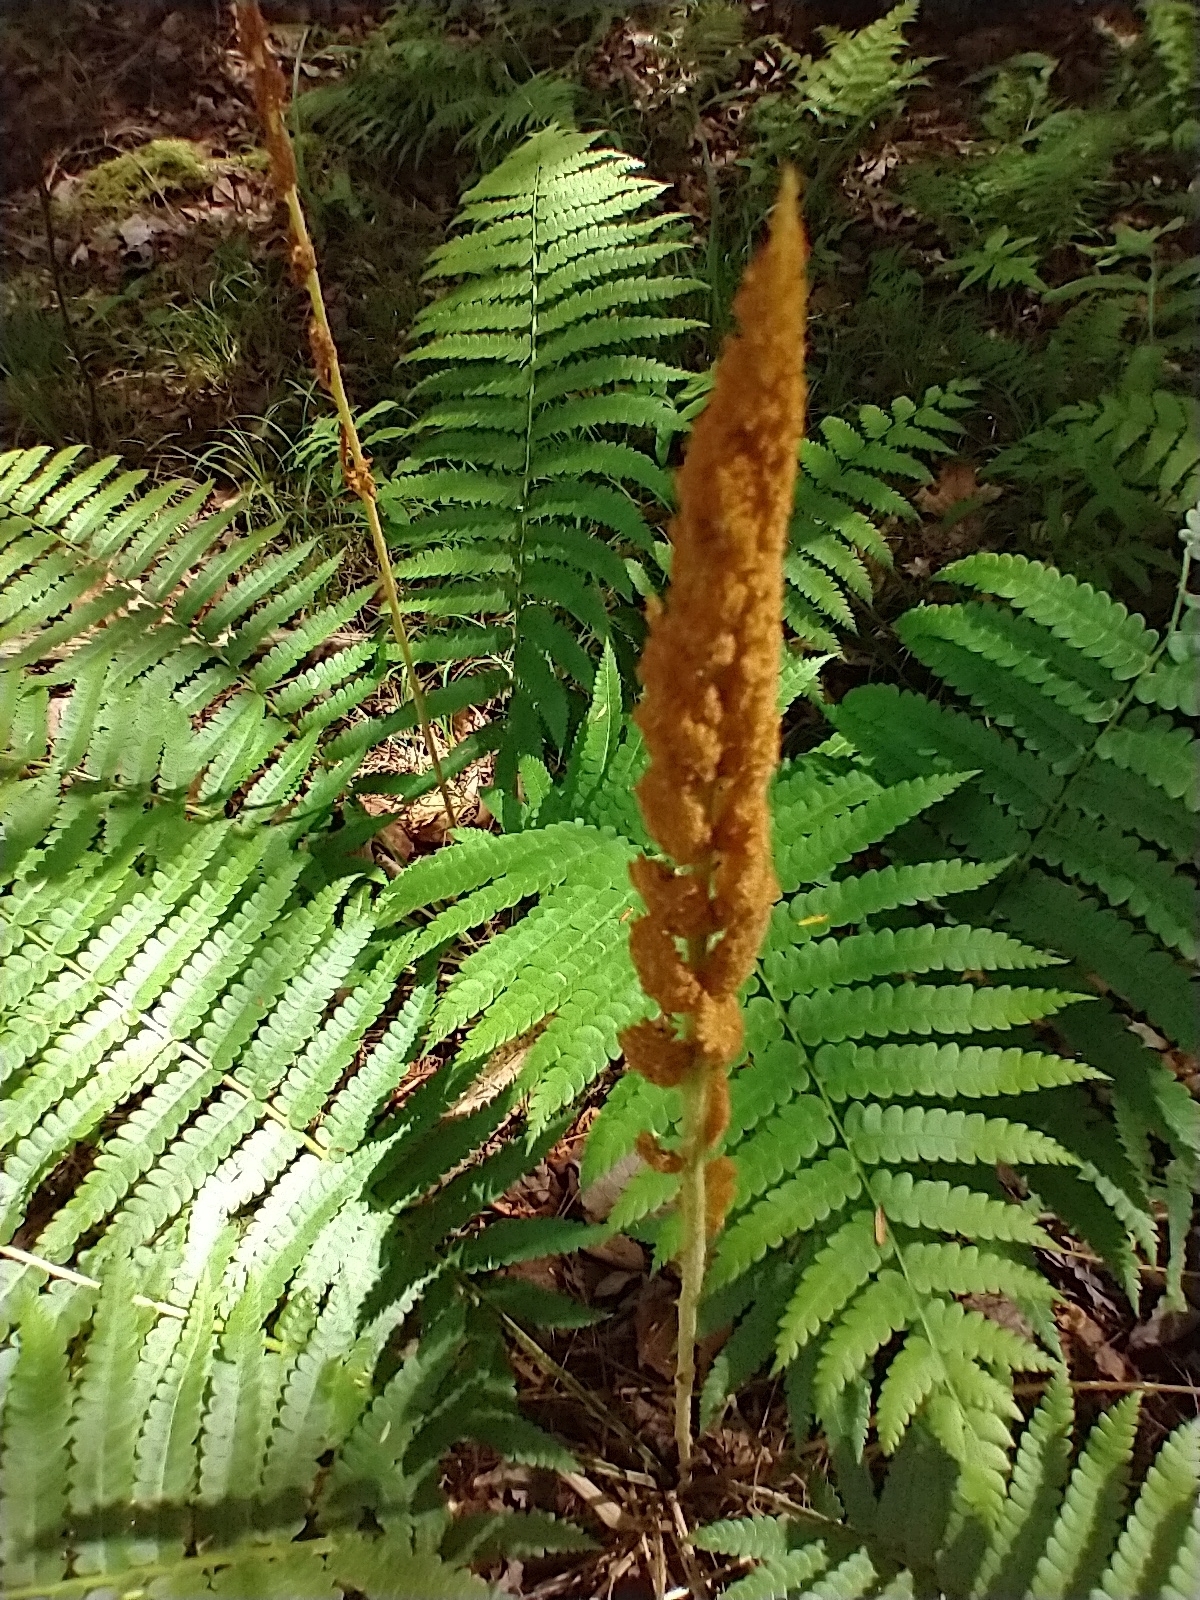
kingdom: Plantae
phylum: Tracheophyta
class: Polypodiopsida
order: Osmundales
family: Osmundaceae
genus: Osmundastrum
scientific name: Osmundastrum cinnamomeum
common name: Cinnamon fern
